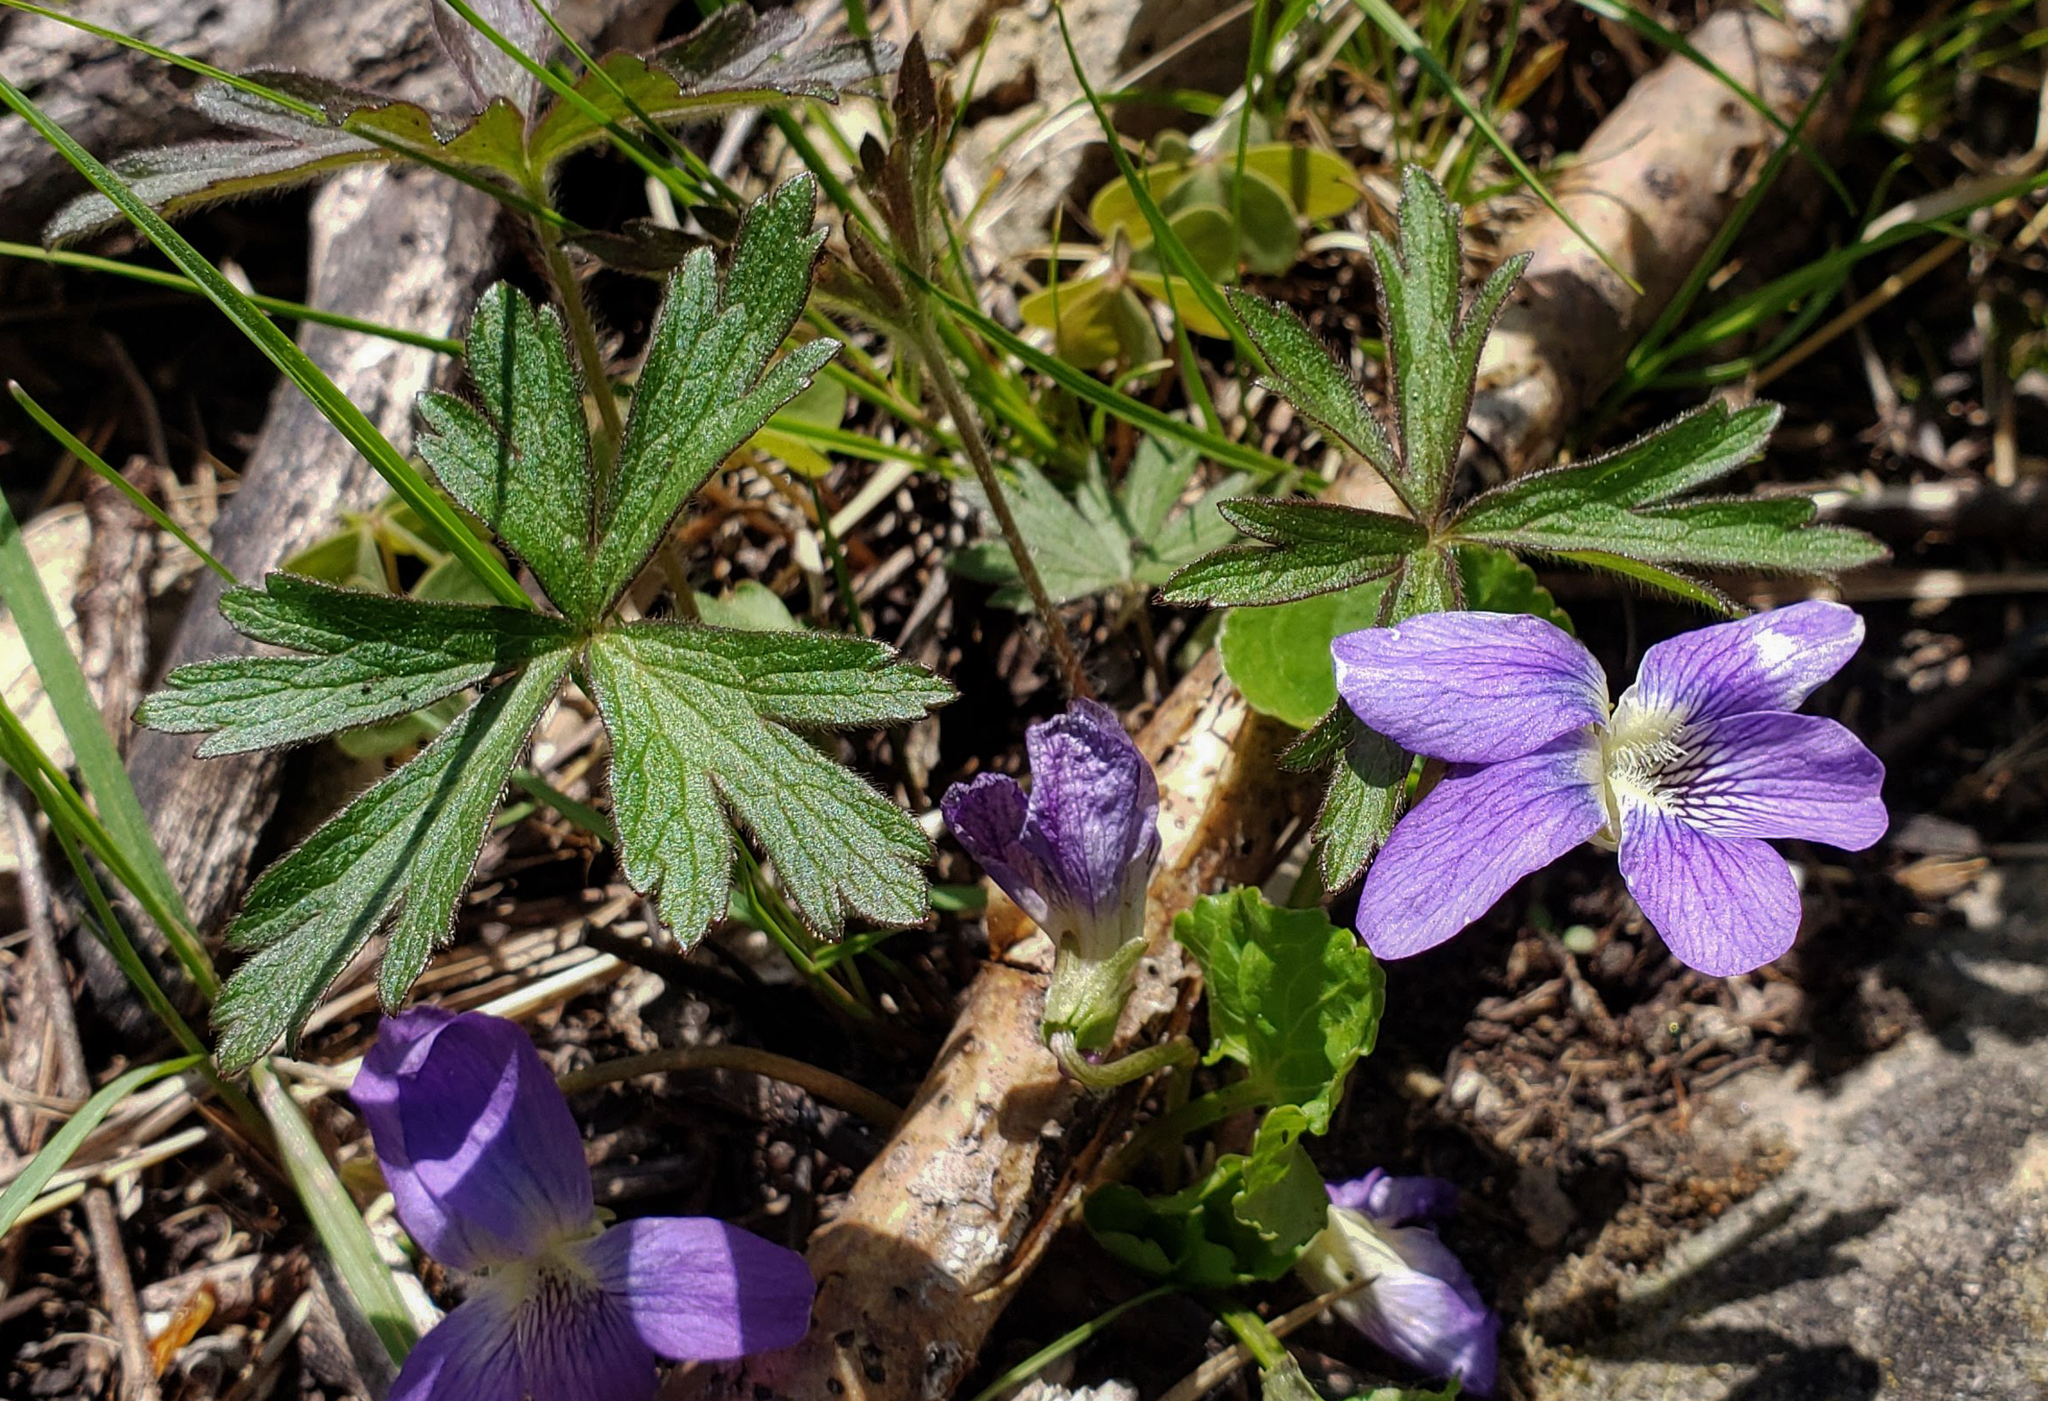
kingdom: Plantae
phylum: Tracheophyta
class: Magnoliopsida
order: Malpighiales
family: Violaceae
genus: Viola
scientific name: Viola pedatifida
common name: Prairie violet
